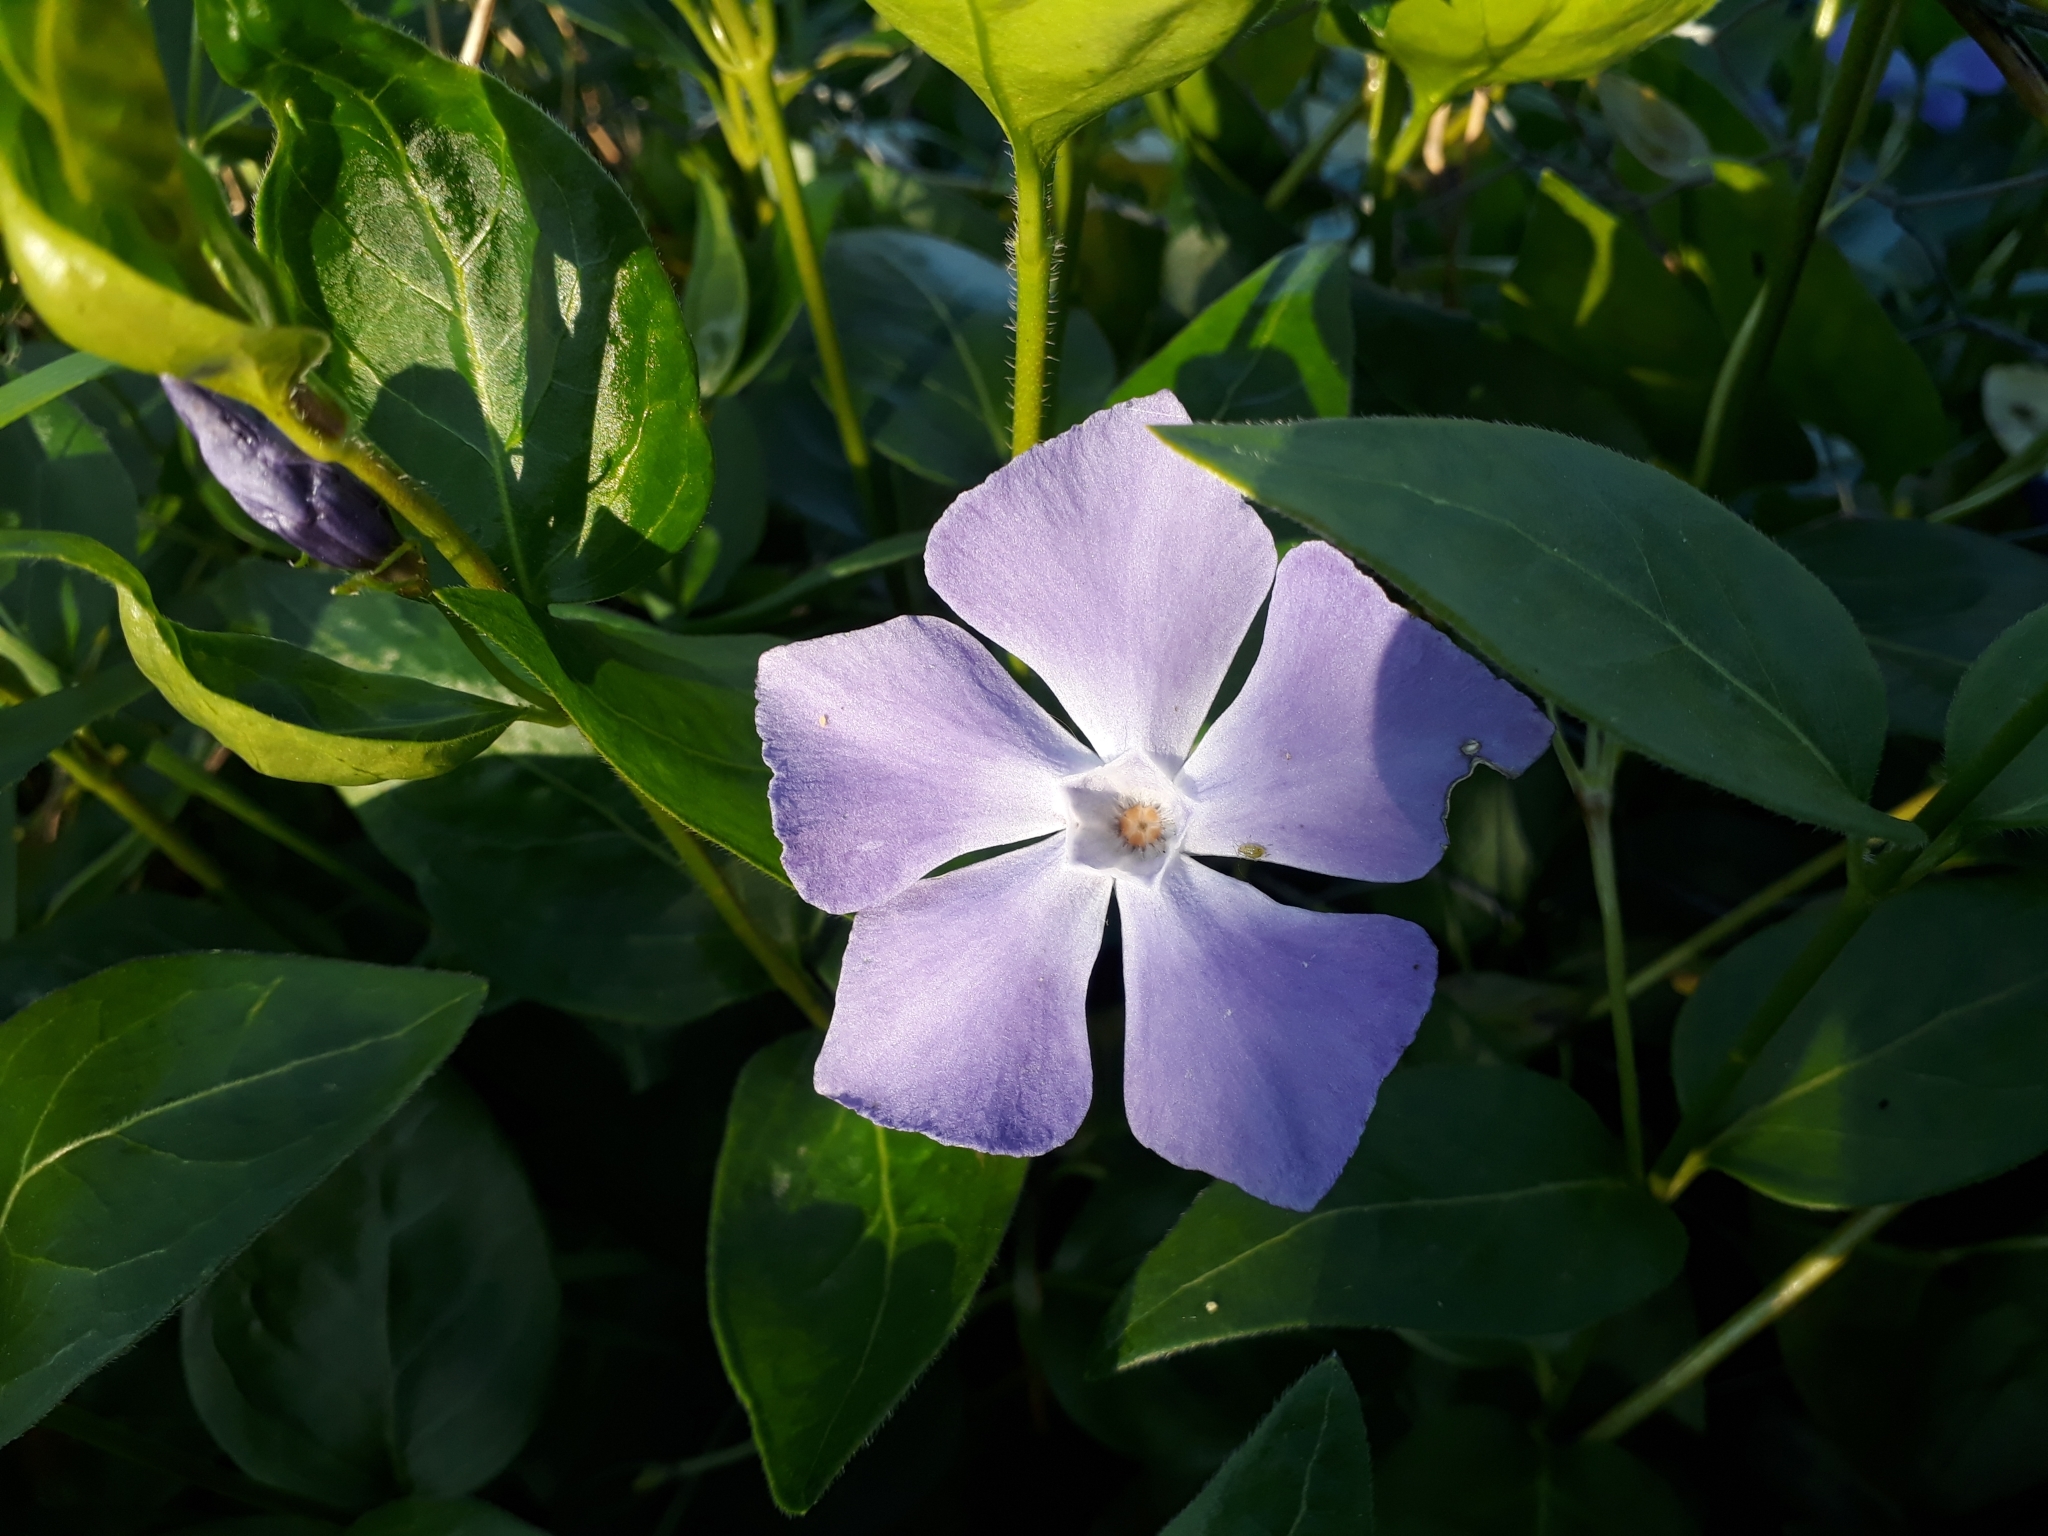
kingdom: Plantae
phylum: Tracheophyta
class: Magnoliopsida
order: Gentianales
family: Apocynaceae
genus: Vinca
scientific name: Vinca major
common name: Greater periwinkle
